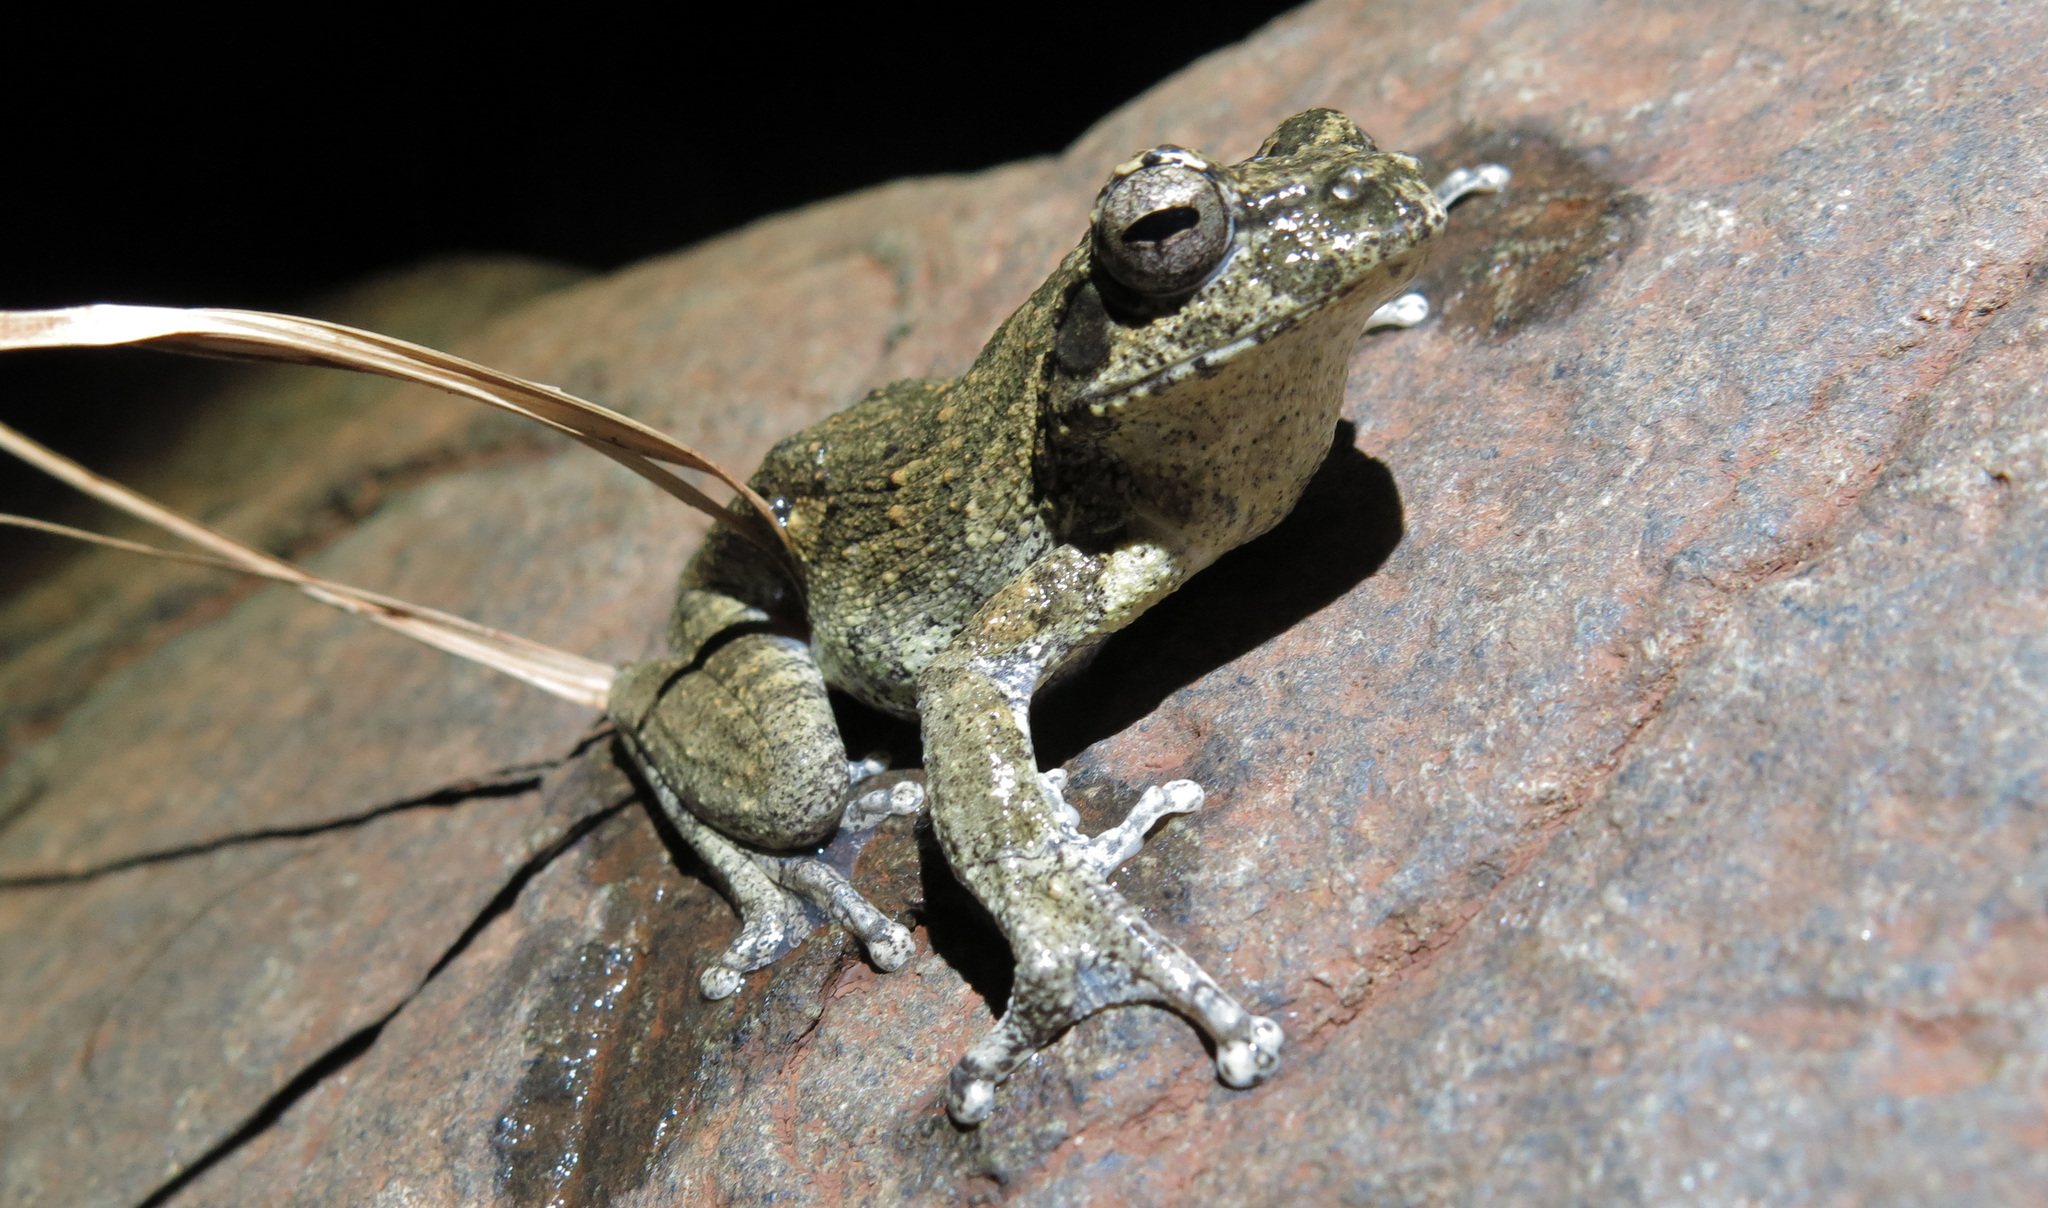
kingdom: Animalia
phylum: Chordata
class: Amphibia
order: Anura
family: Rhacophoridae
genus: Chiromantis
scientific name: Chiromantis xerampelina
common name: African gray treefrog
